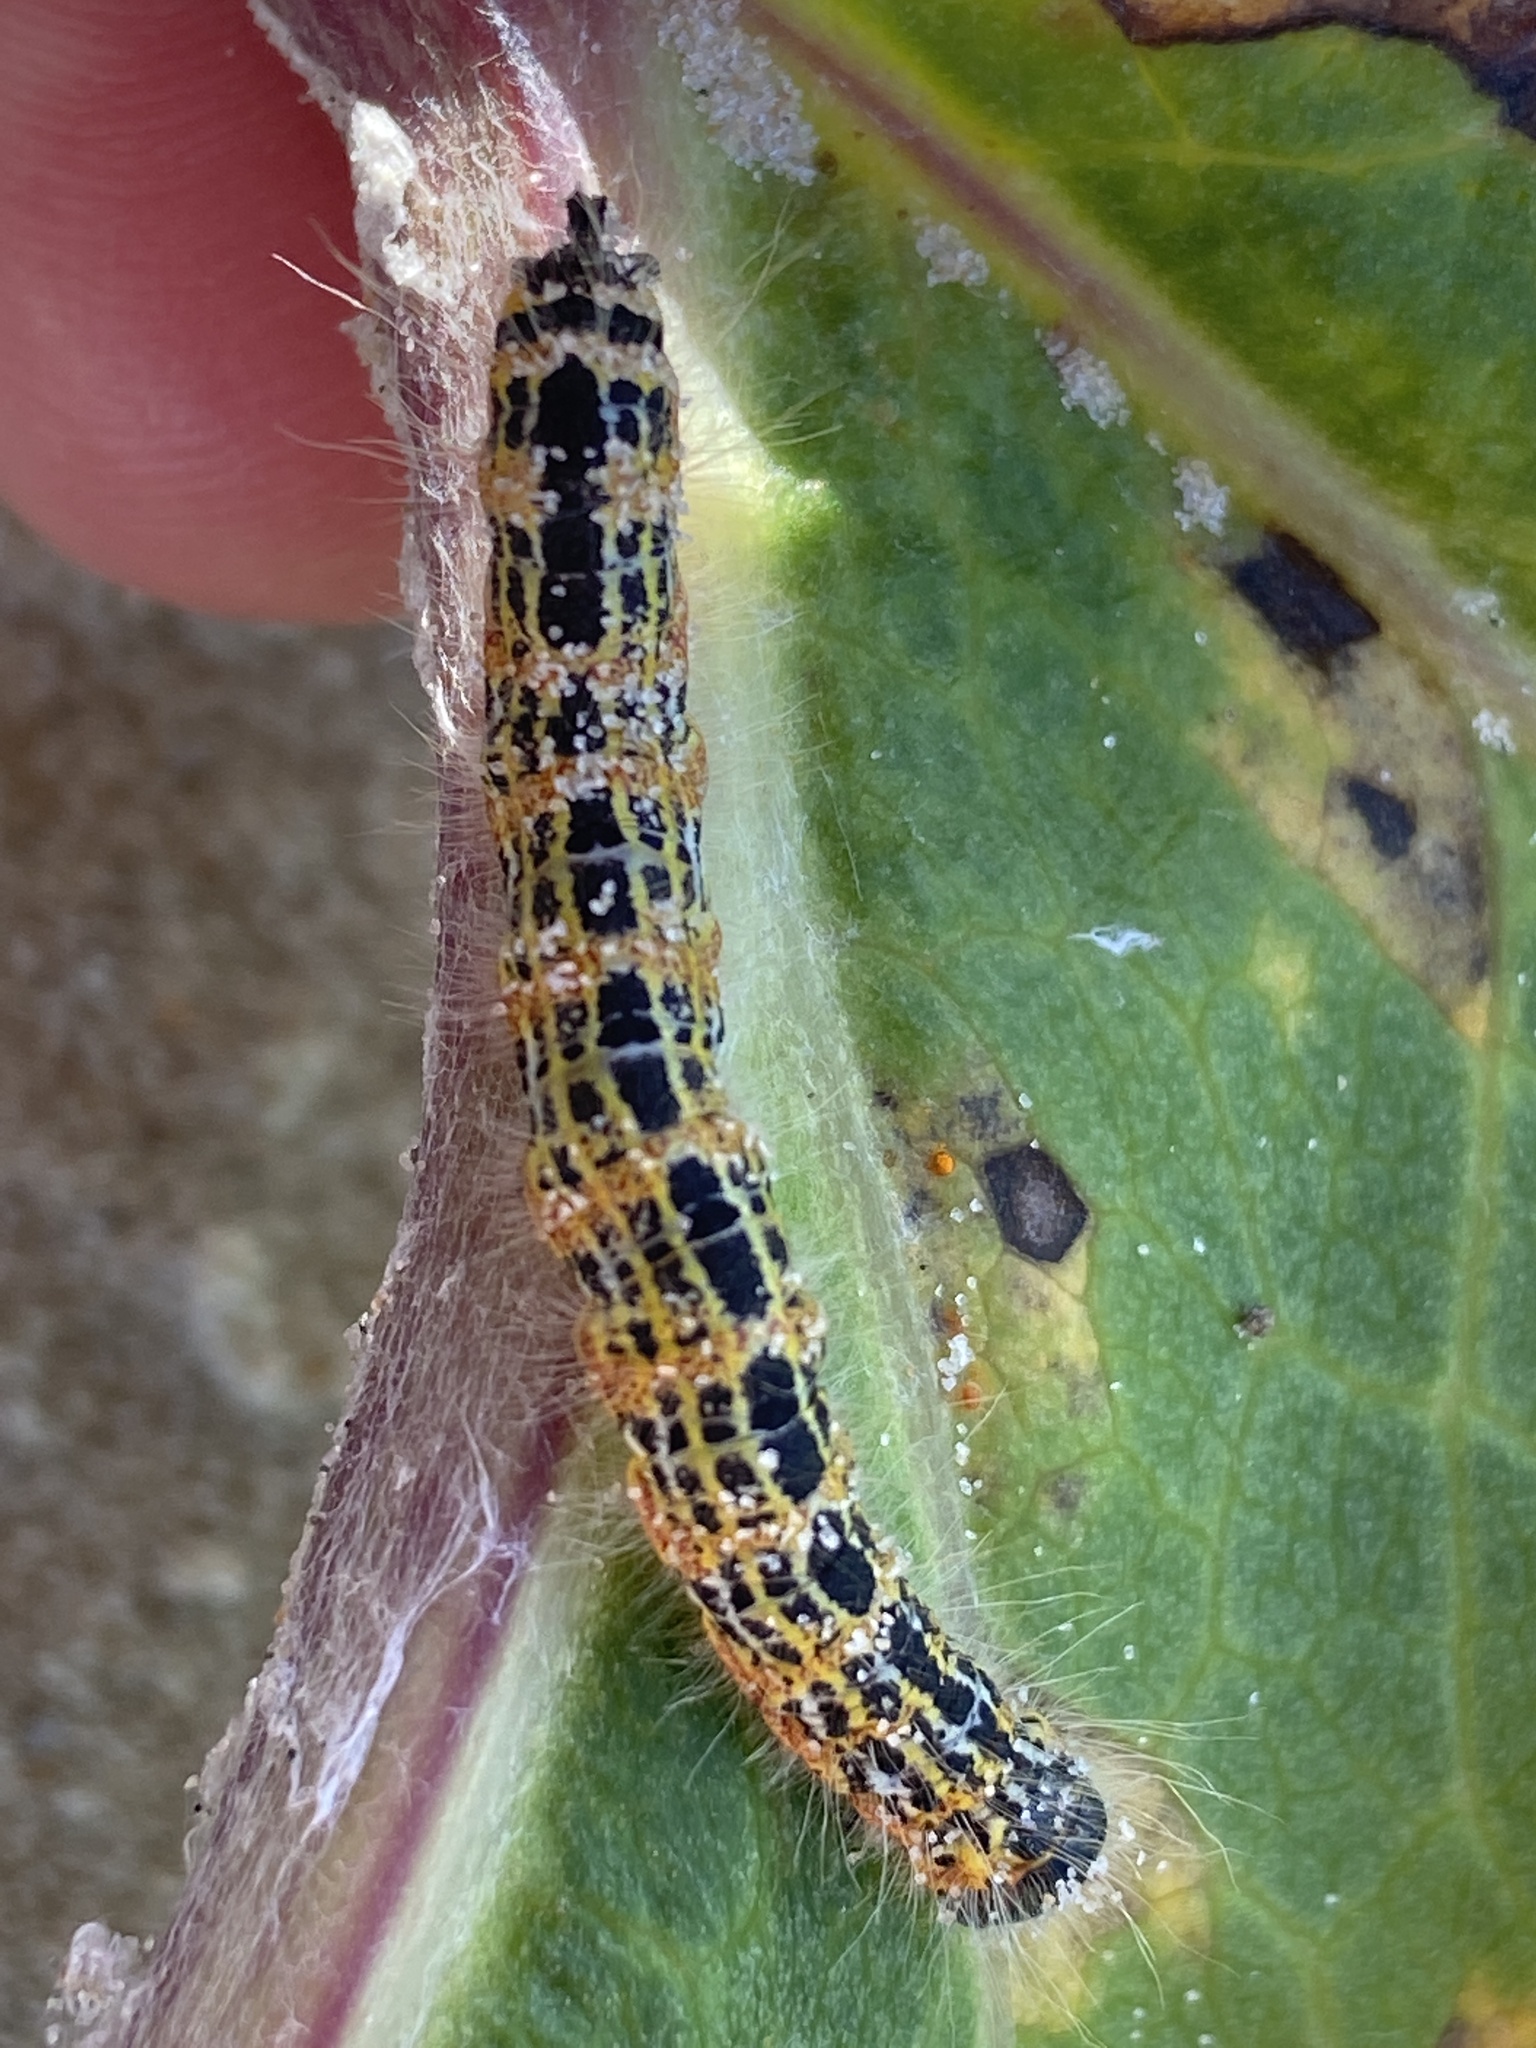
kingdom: Animalia
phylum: Arthropoda
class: Insecta
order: Lepidoptera
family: Notodontidae
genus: Phalera
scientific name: Phalera bucephala
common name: Buff-tip
